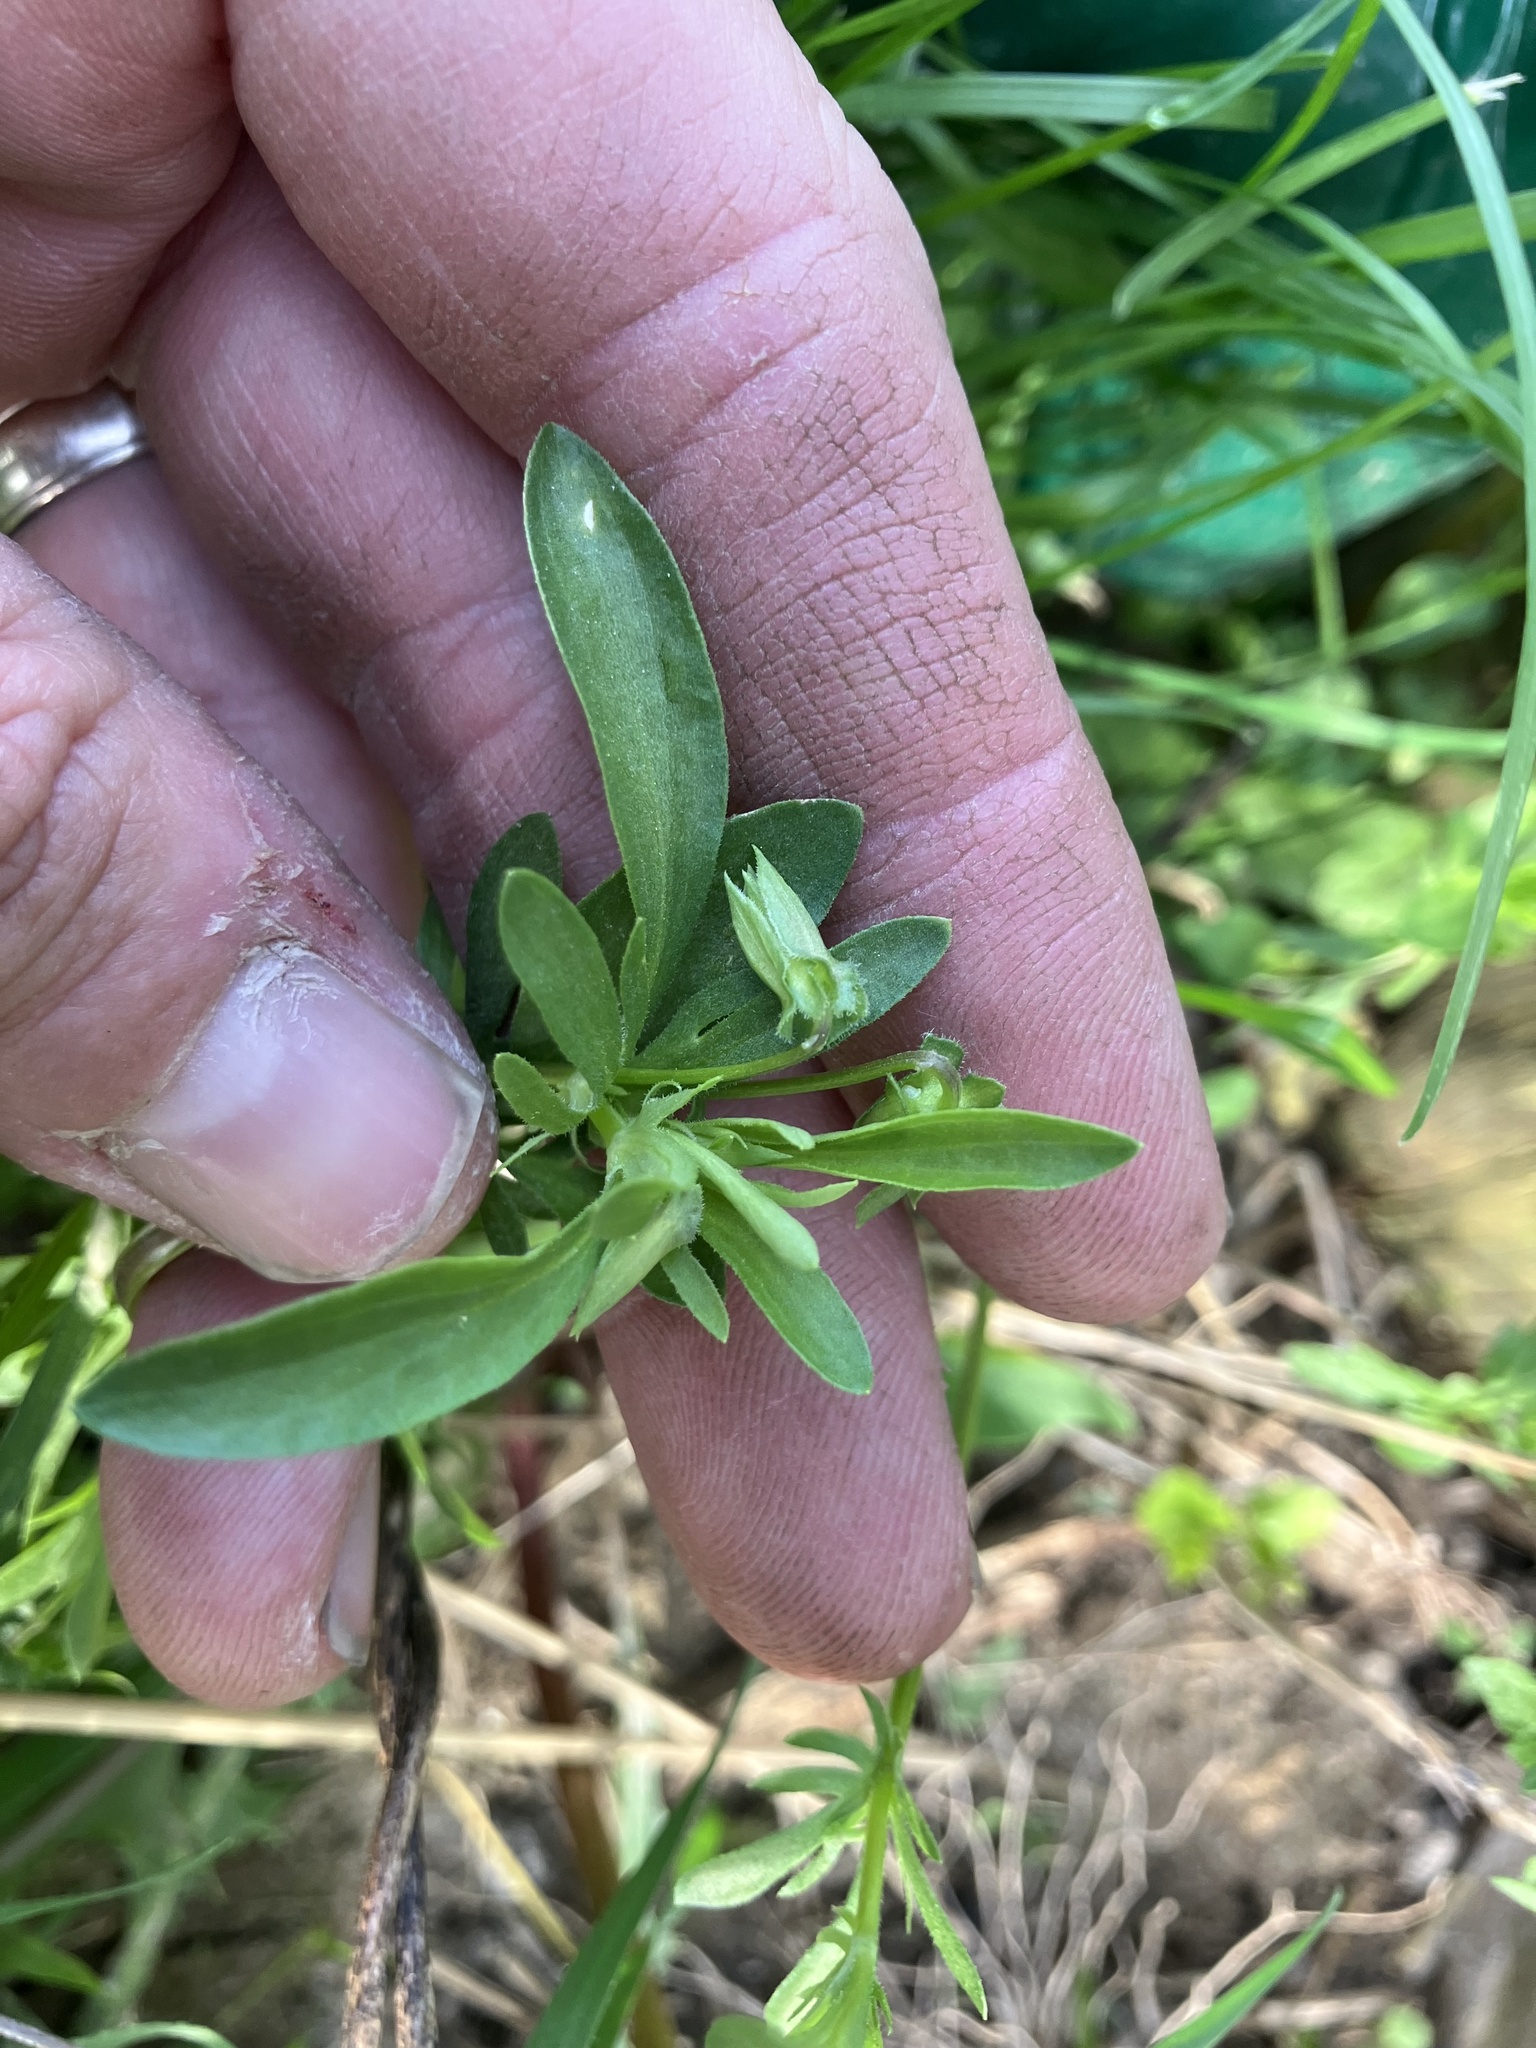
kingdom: Plantae
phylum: Tracheophyta
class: Magnoliopsida
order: Malpighiales
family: Violaceae
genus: Viola
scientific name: Viola rafinesquei
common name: American field pansy
